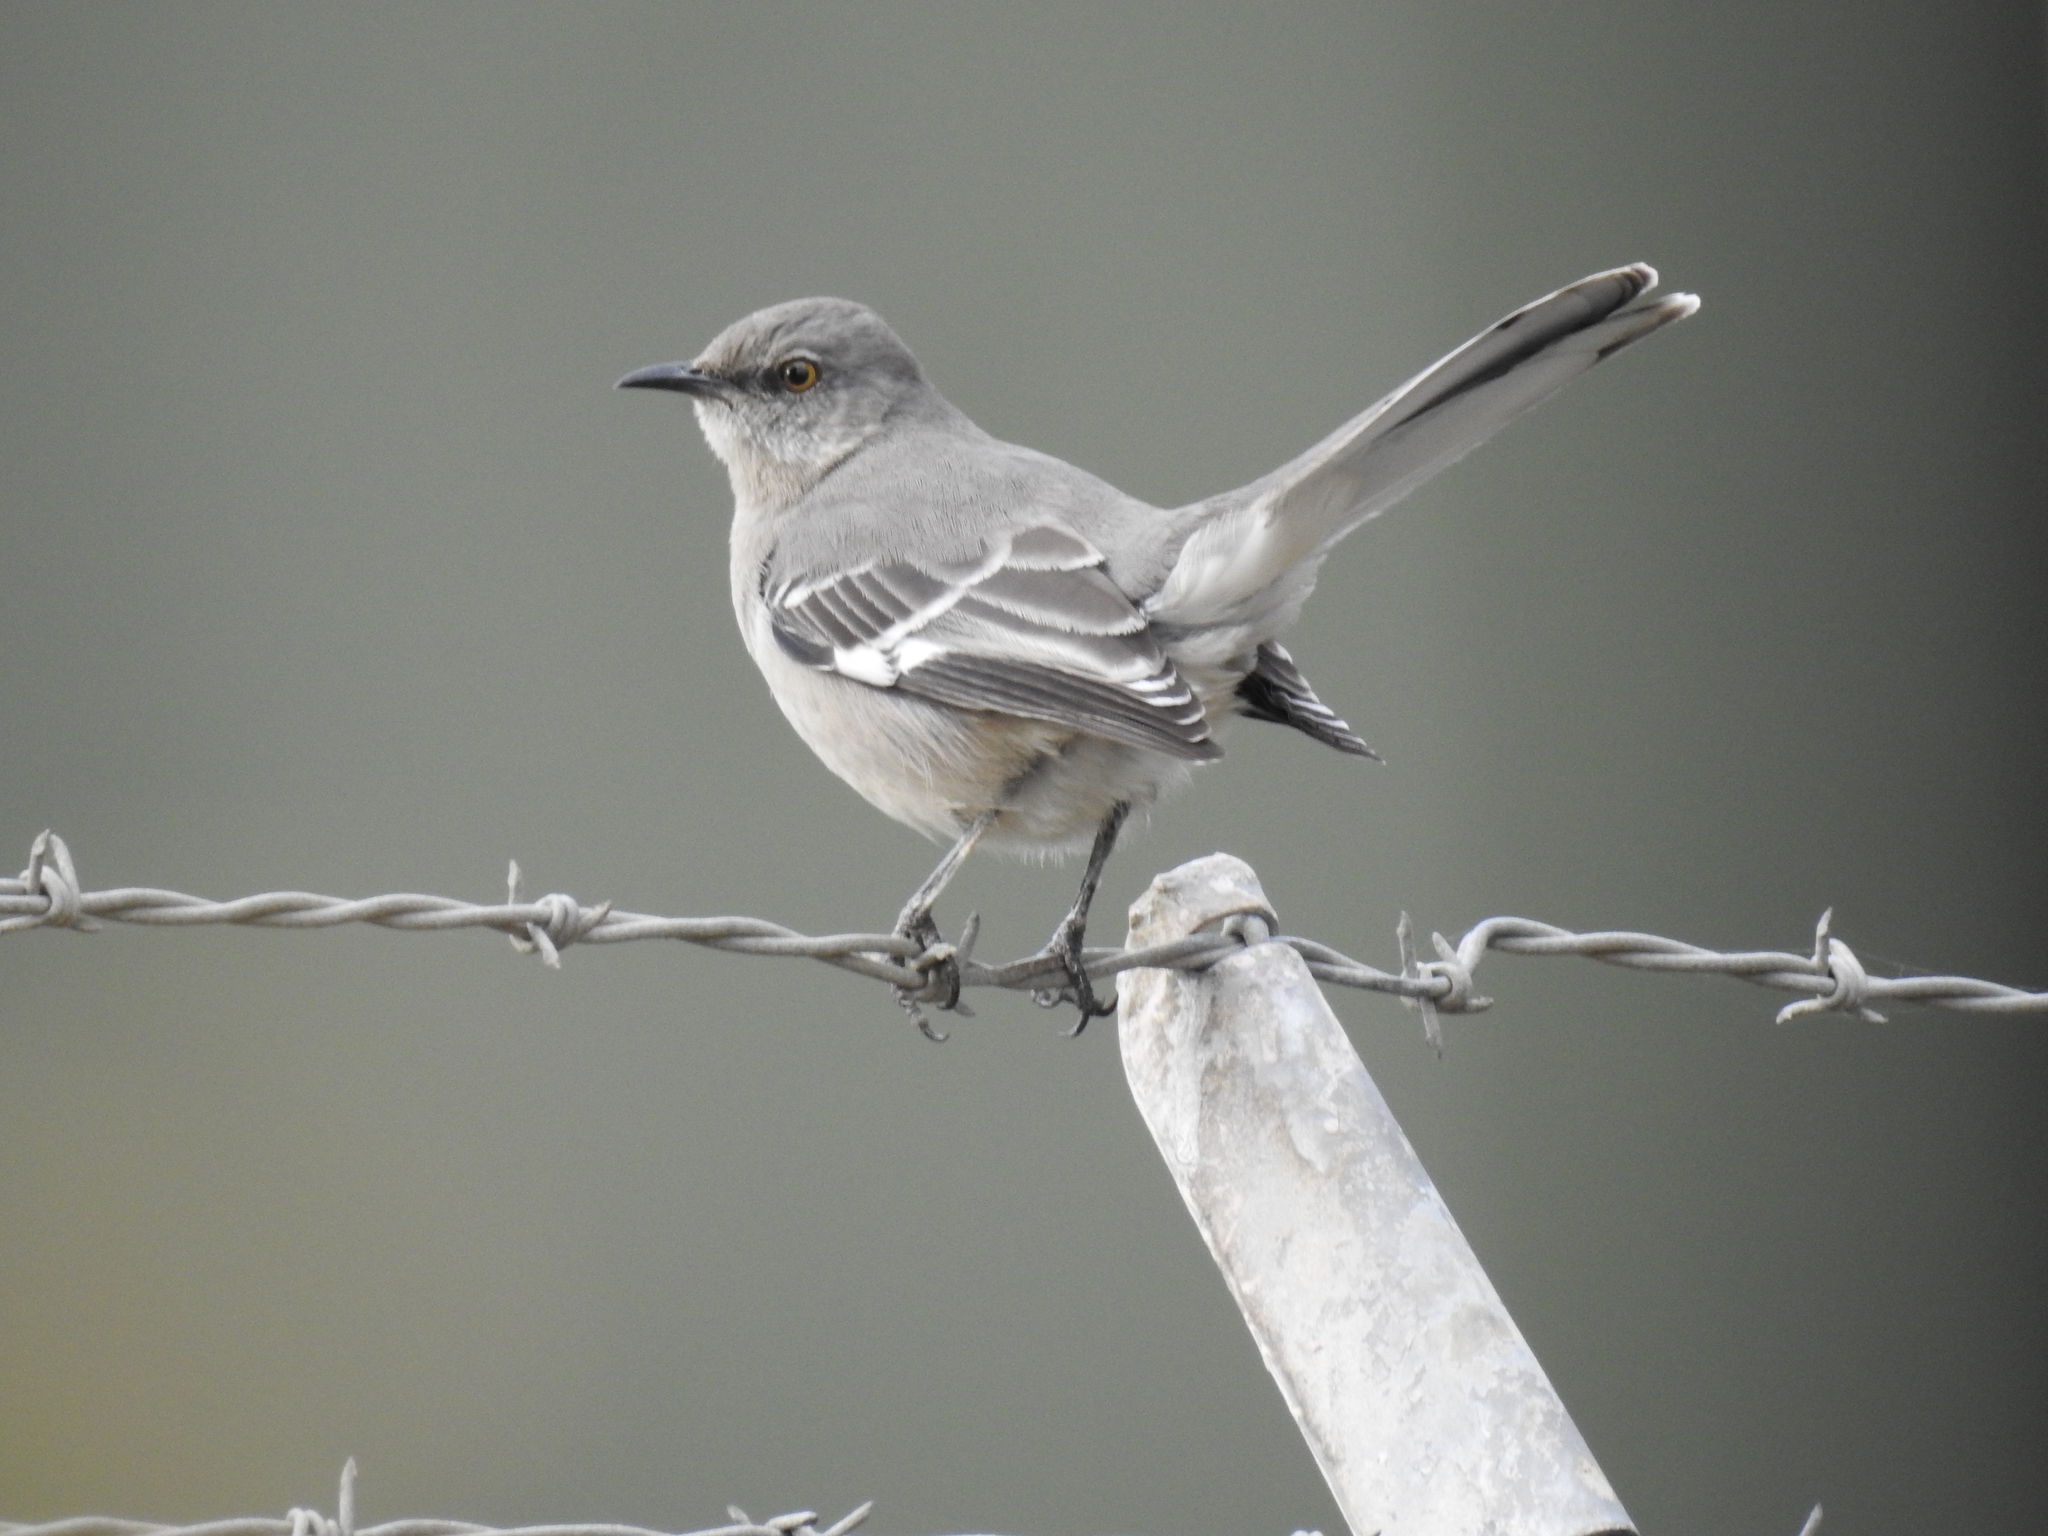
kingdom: Animalia
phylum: Chordata
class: Aves
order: Passeriformes
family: Mimidae
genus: Mimus
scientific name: Mimus polyglottos
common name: Northern mockingbird
